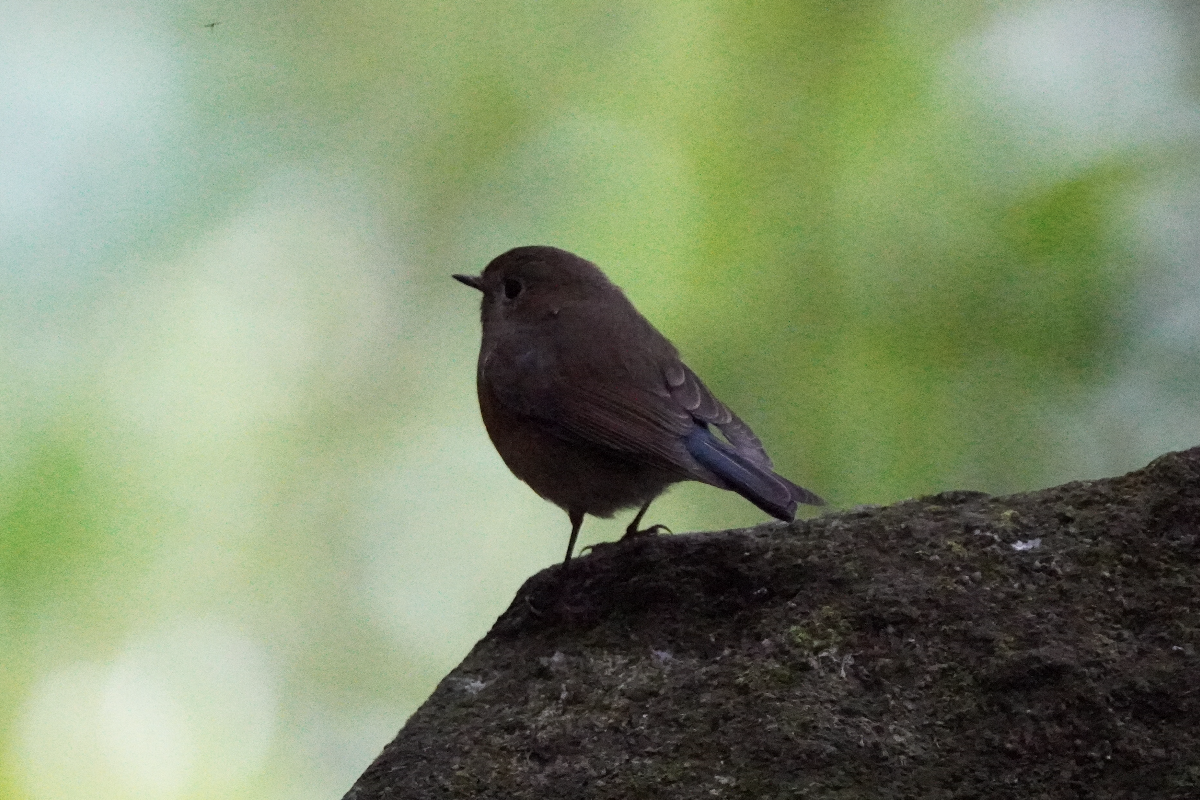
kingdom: Animalia
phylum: Chordata
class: Aves
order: Passeriformes
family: Muscicapidae
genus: Tarsiger
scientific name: Tarsiger cyanurus
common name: Red-flanked bluetail
